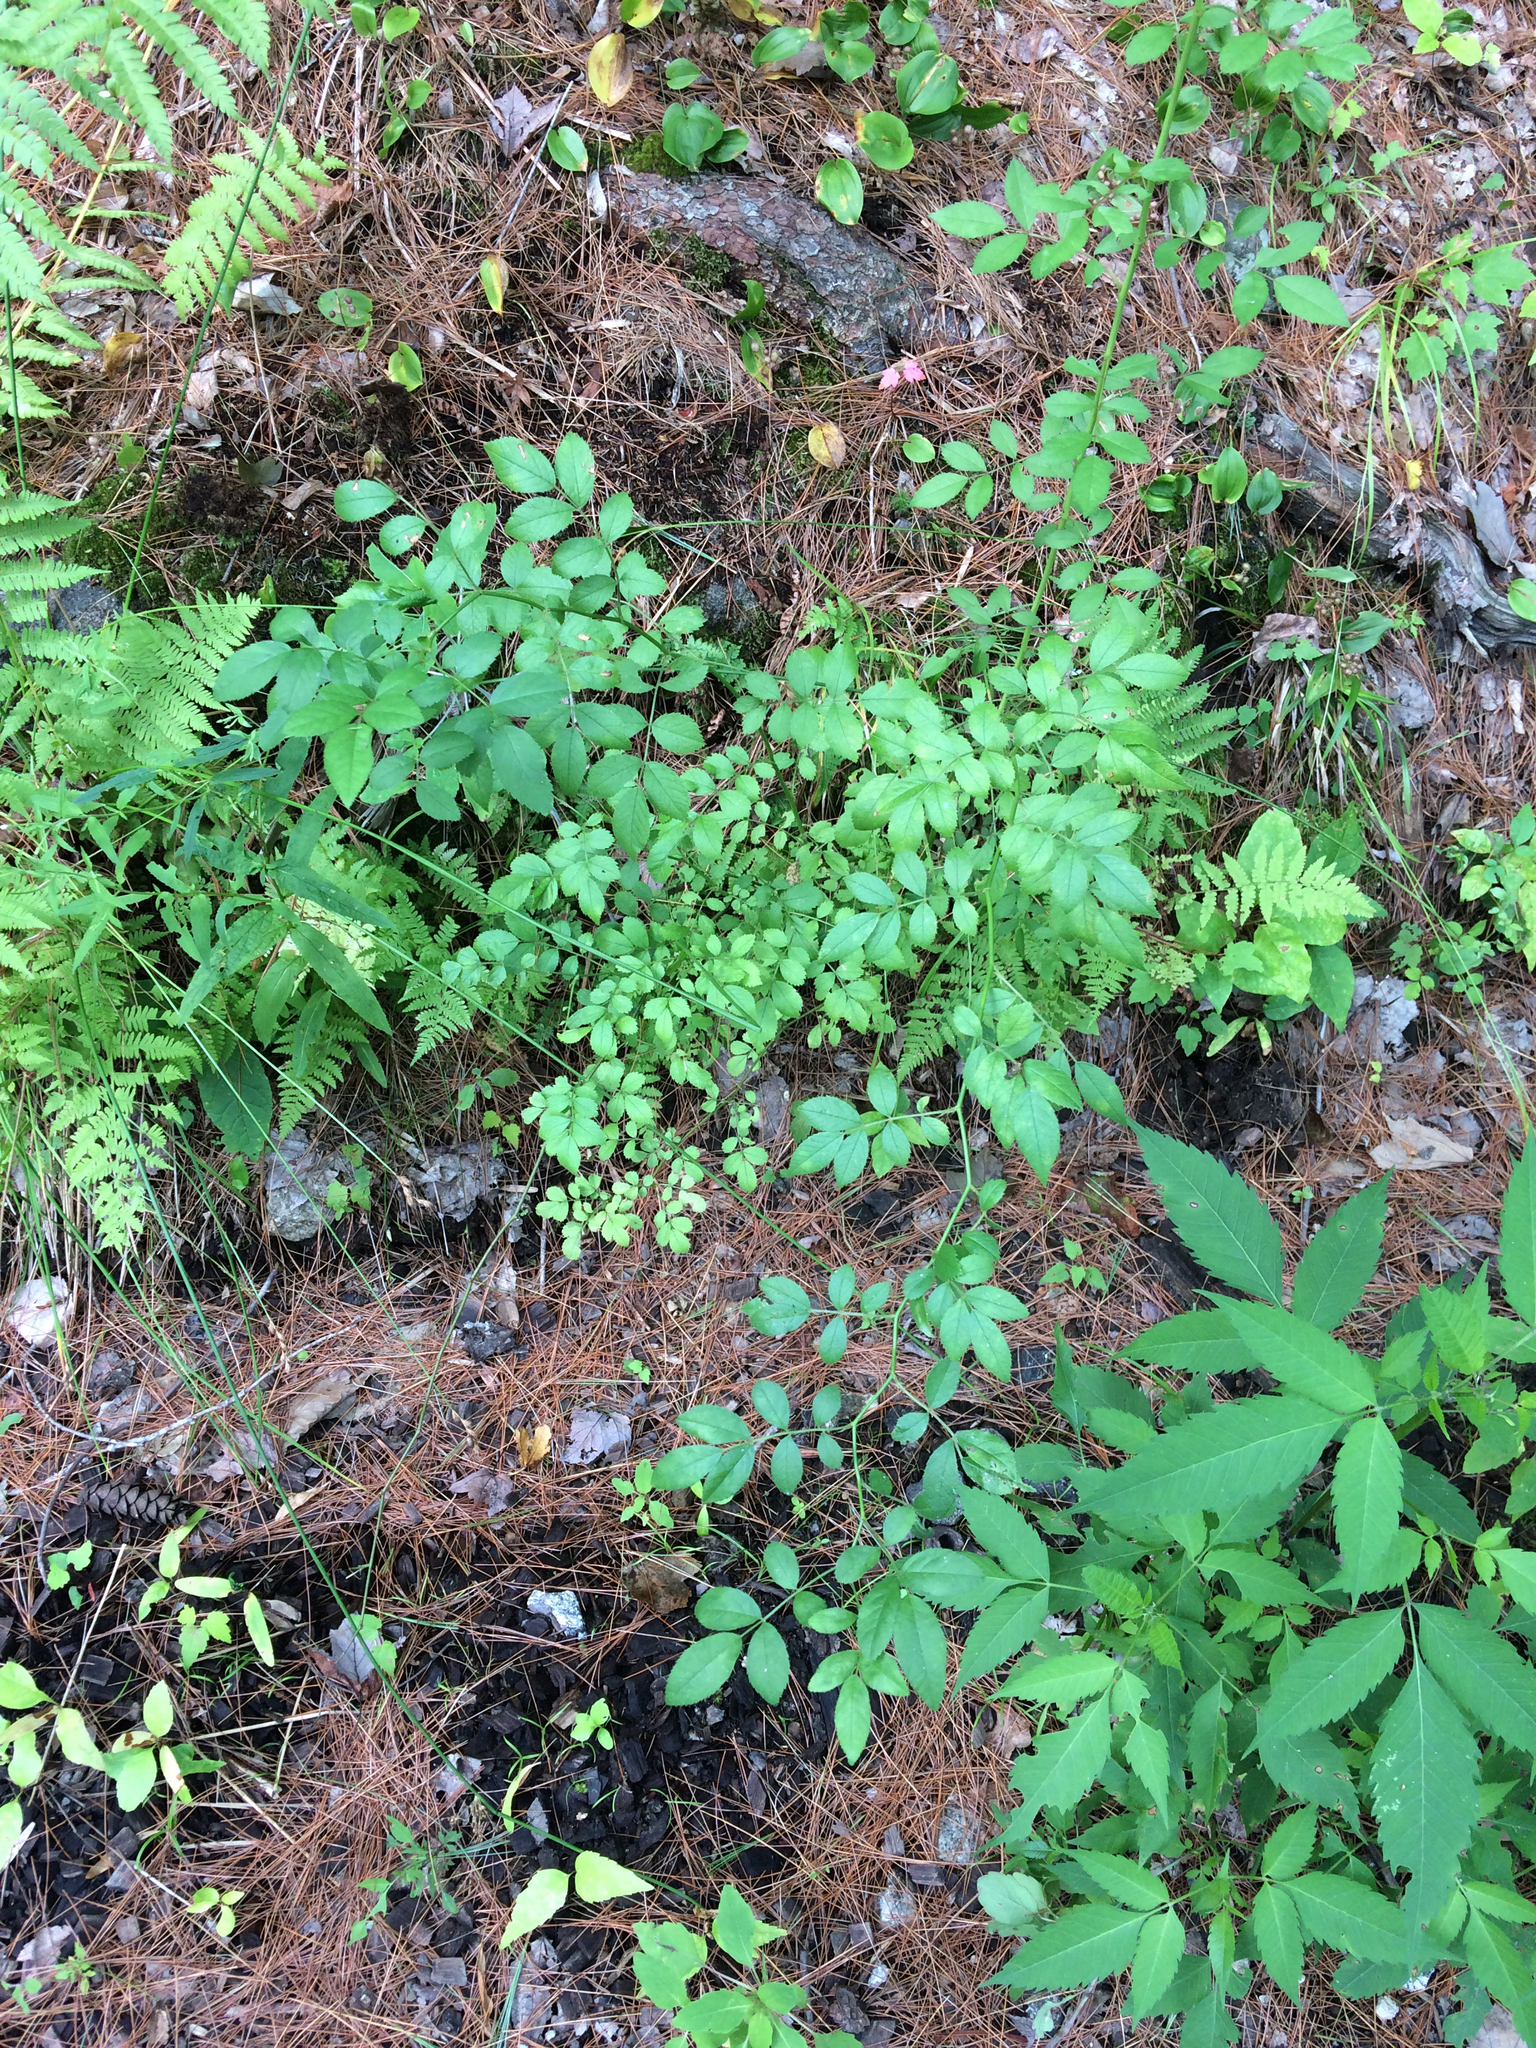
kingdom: Plantae
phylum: Tracheophyta
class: Magnoliopsida
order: Rosales
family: Rosaceae
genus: Rosa
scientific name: Rosa multiflora
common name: Multiflora rose
